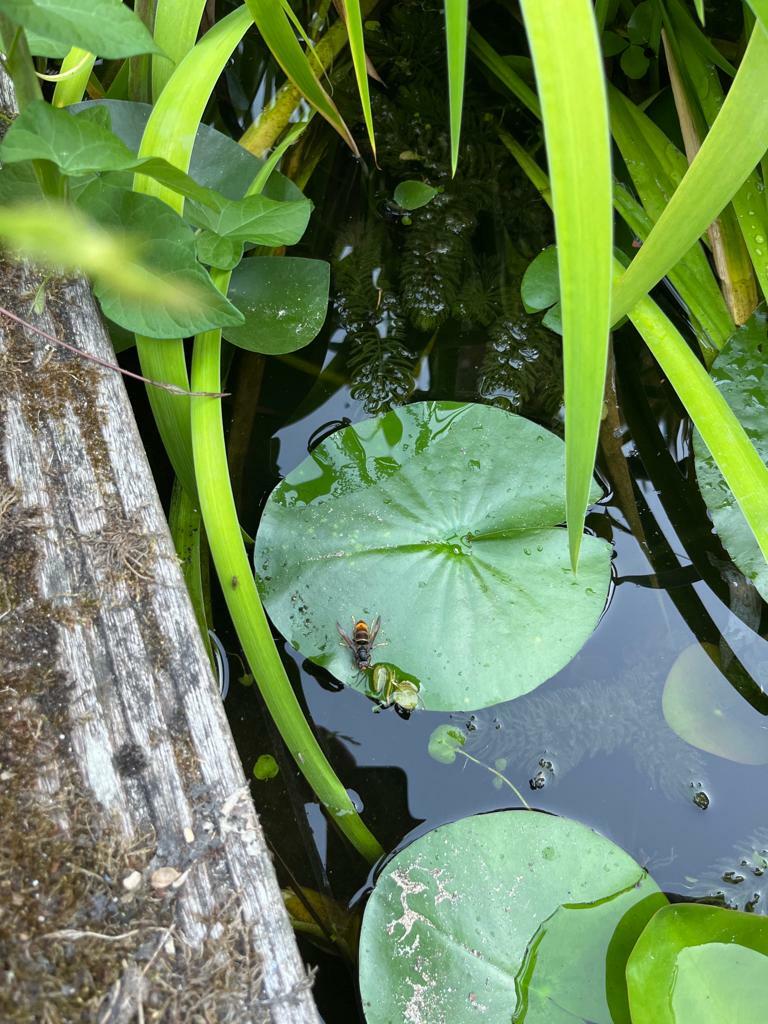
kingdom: Animalia
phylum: Arthropoda
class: Insecta
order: Hymenoptera
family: Vespidae
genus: Vespa
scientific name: Vespa velutina
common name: Asian hornet
